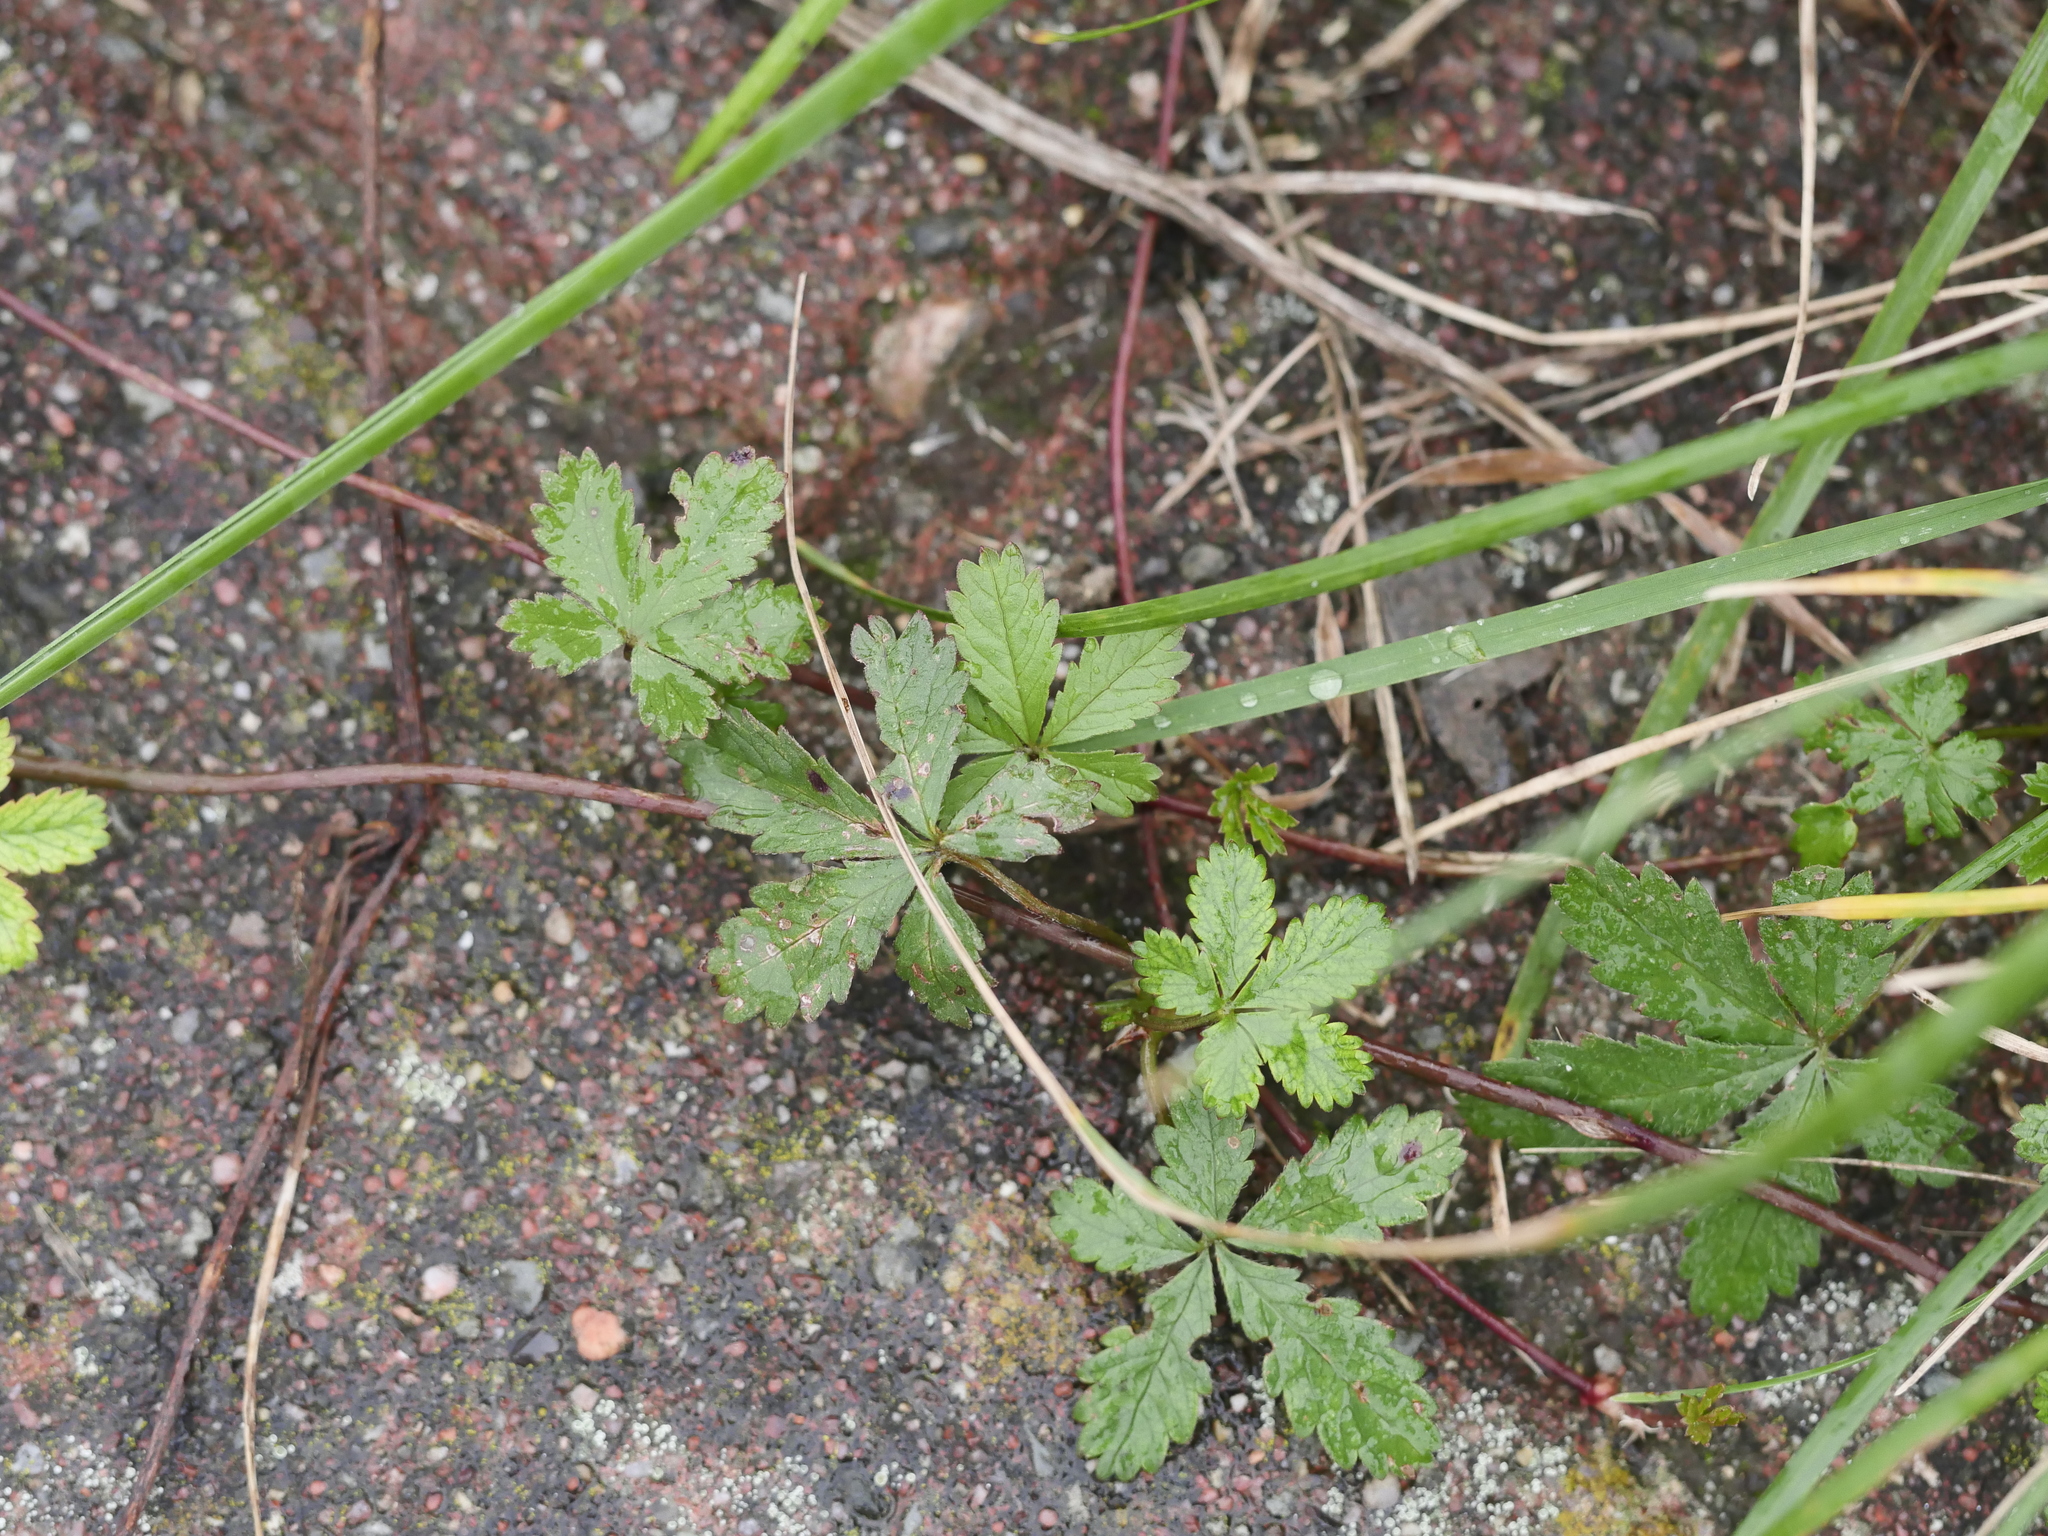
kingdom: Plantae
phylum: Tracheophyta
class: Magnoliopsida
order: Rosales
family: Rosaceae
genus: Potentilla
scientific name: Potentilla reptans
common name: Creeping cinquefoil
